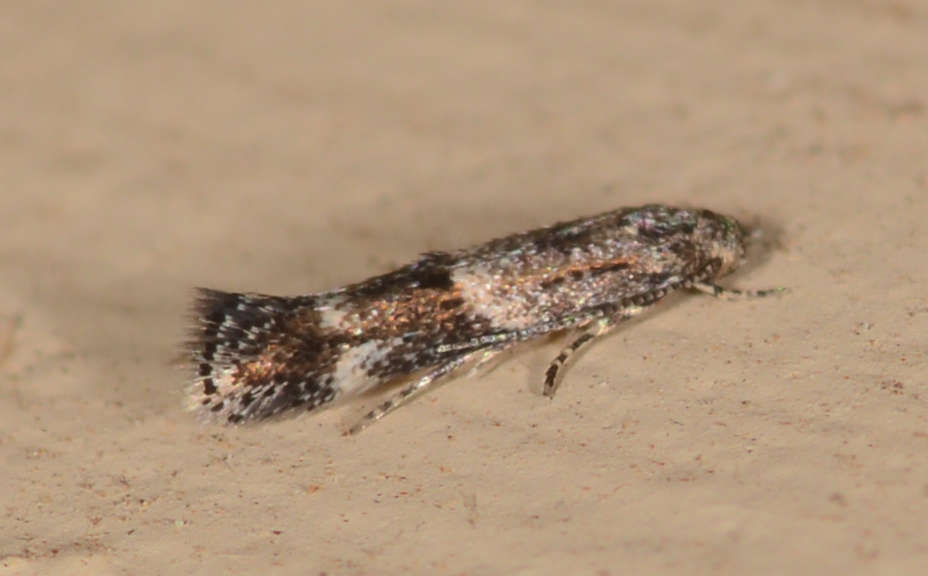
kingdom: Animalia
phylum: Arthropoda
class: Insecta
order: Lepidoptera
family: Elachistidae
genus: Elachista
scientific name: Elachista delira
